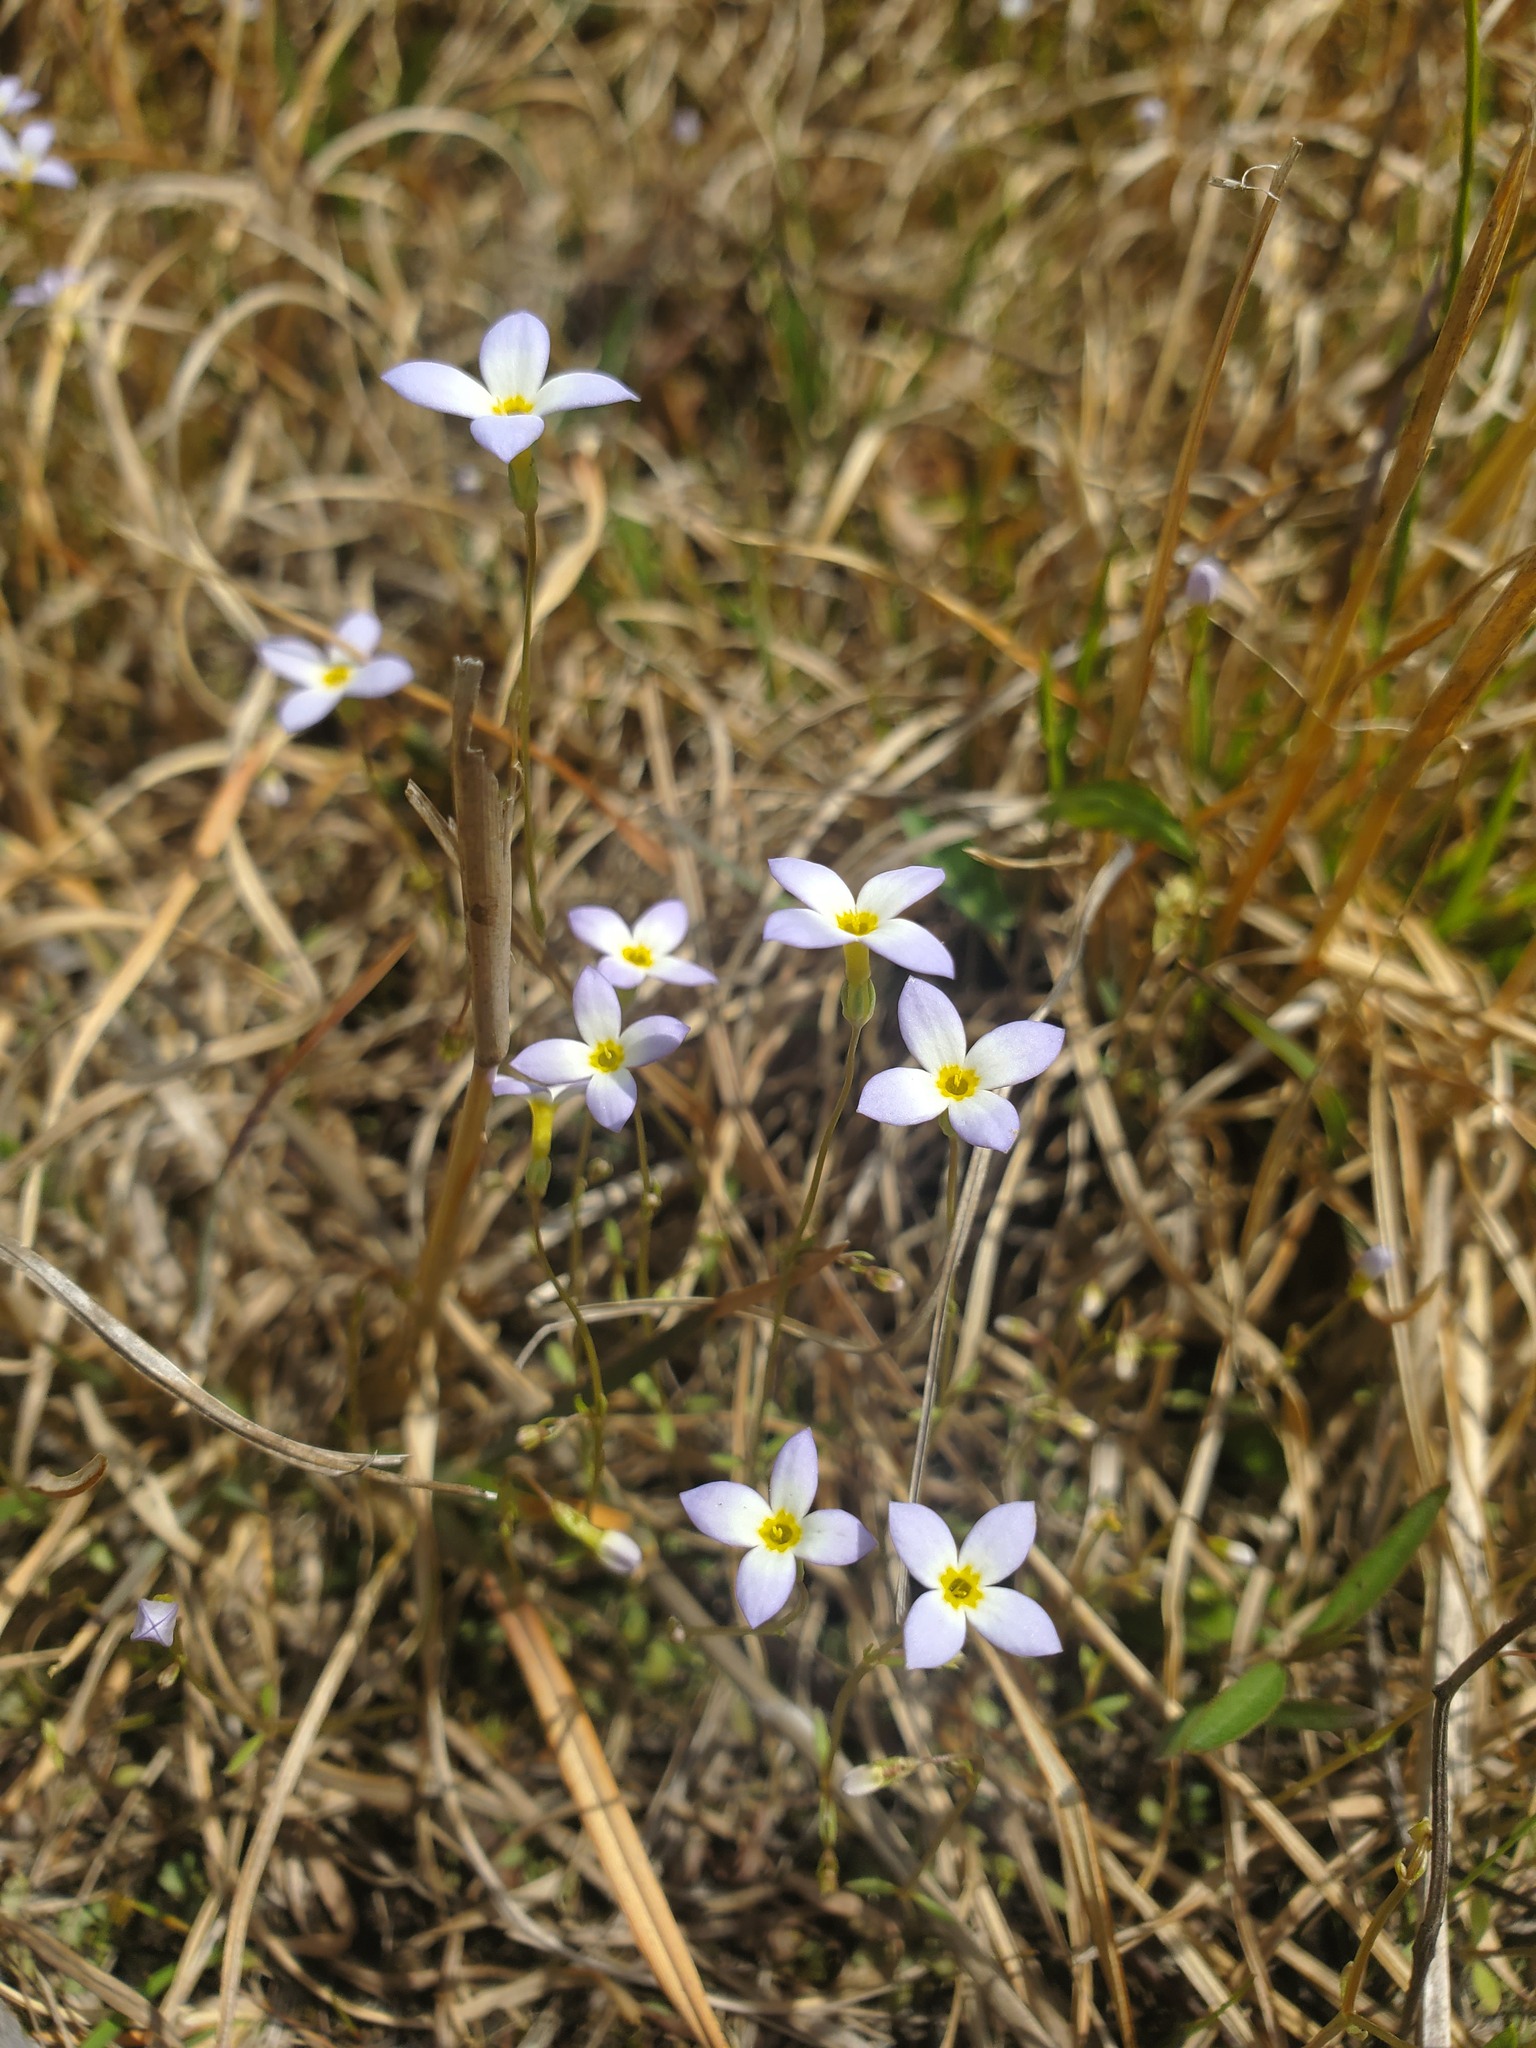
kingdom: Plantae
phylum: Tracheophyta
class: Magnoliopsida
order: Gentianales
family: Rubiaceae
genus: Houstonia
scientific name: Houstonia caerulea
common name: Bluets
